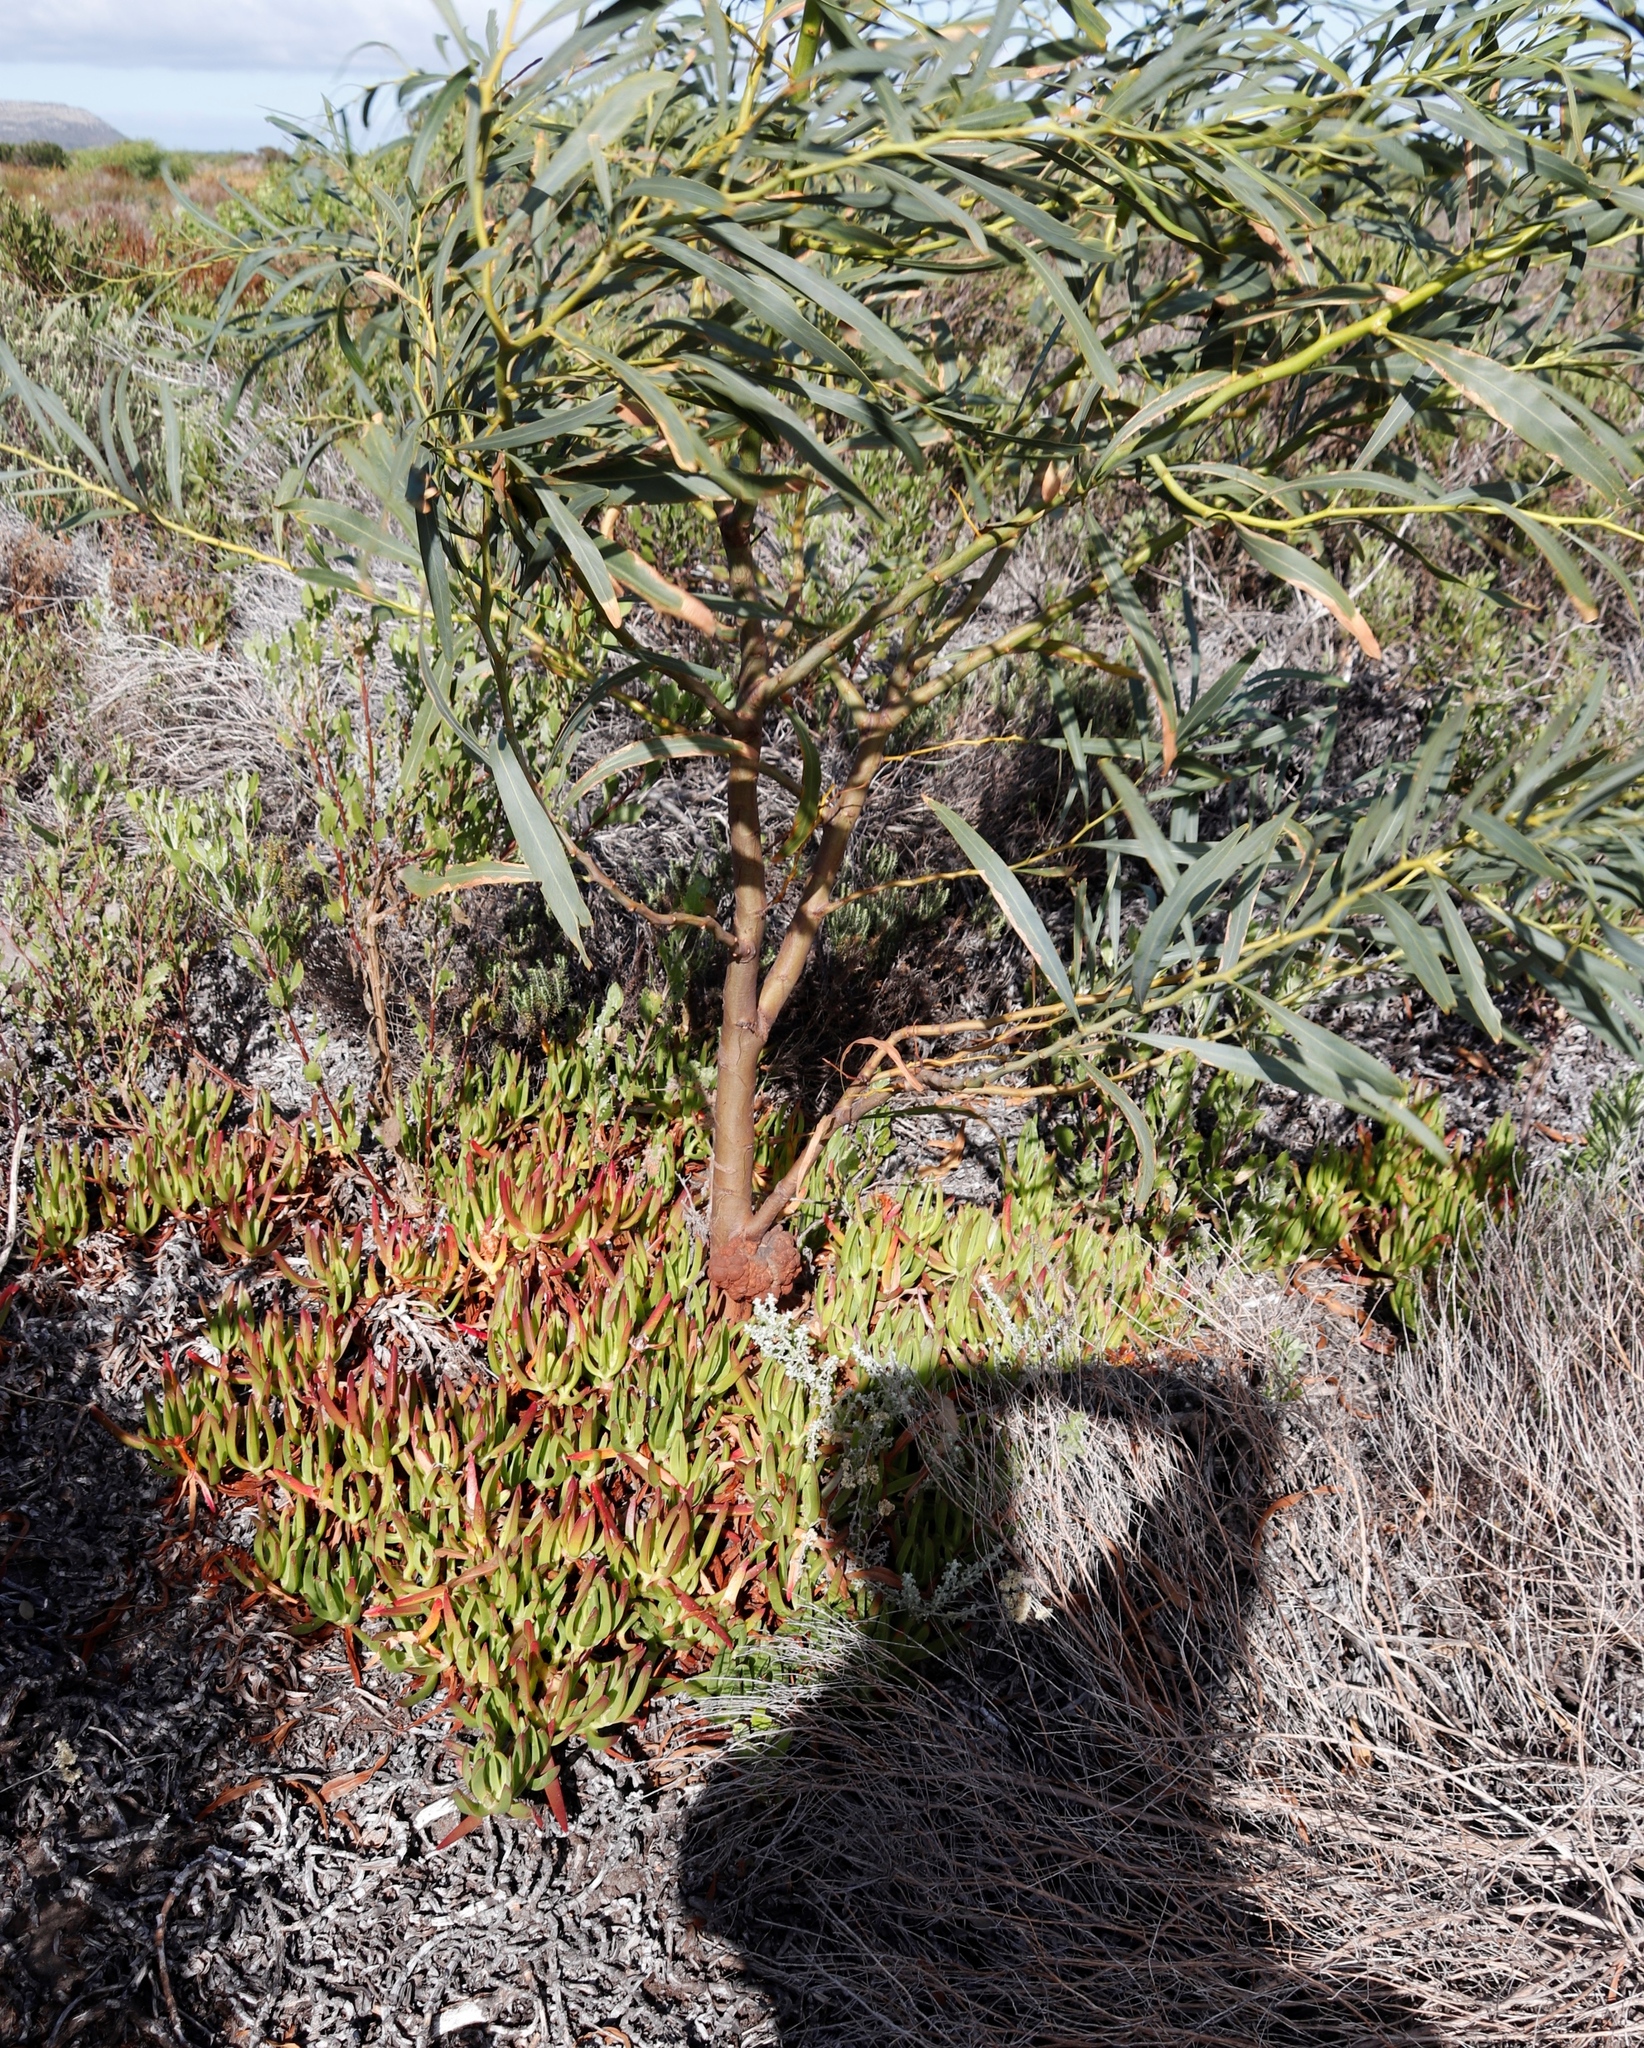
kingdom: Plantae
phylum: Tracheophyta
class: Magnoliopsida
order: Caryophyllales
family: Aizoaceae
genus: Carpobrotus
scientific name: Carpobrotus edulis
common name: Hottentot-fig
